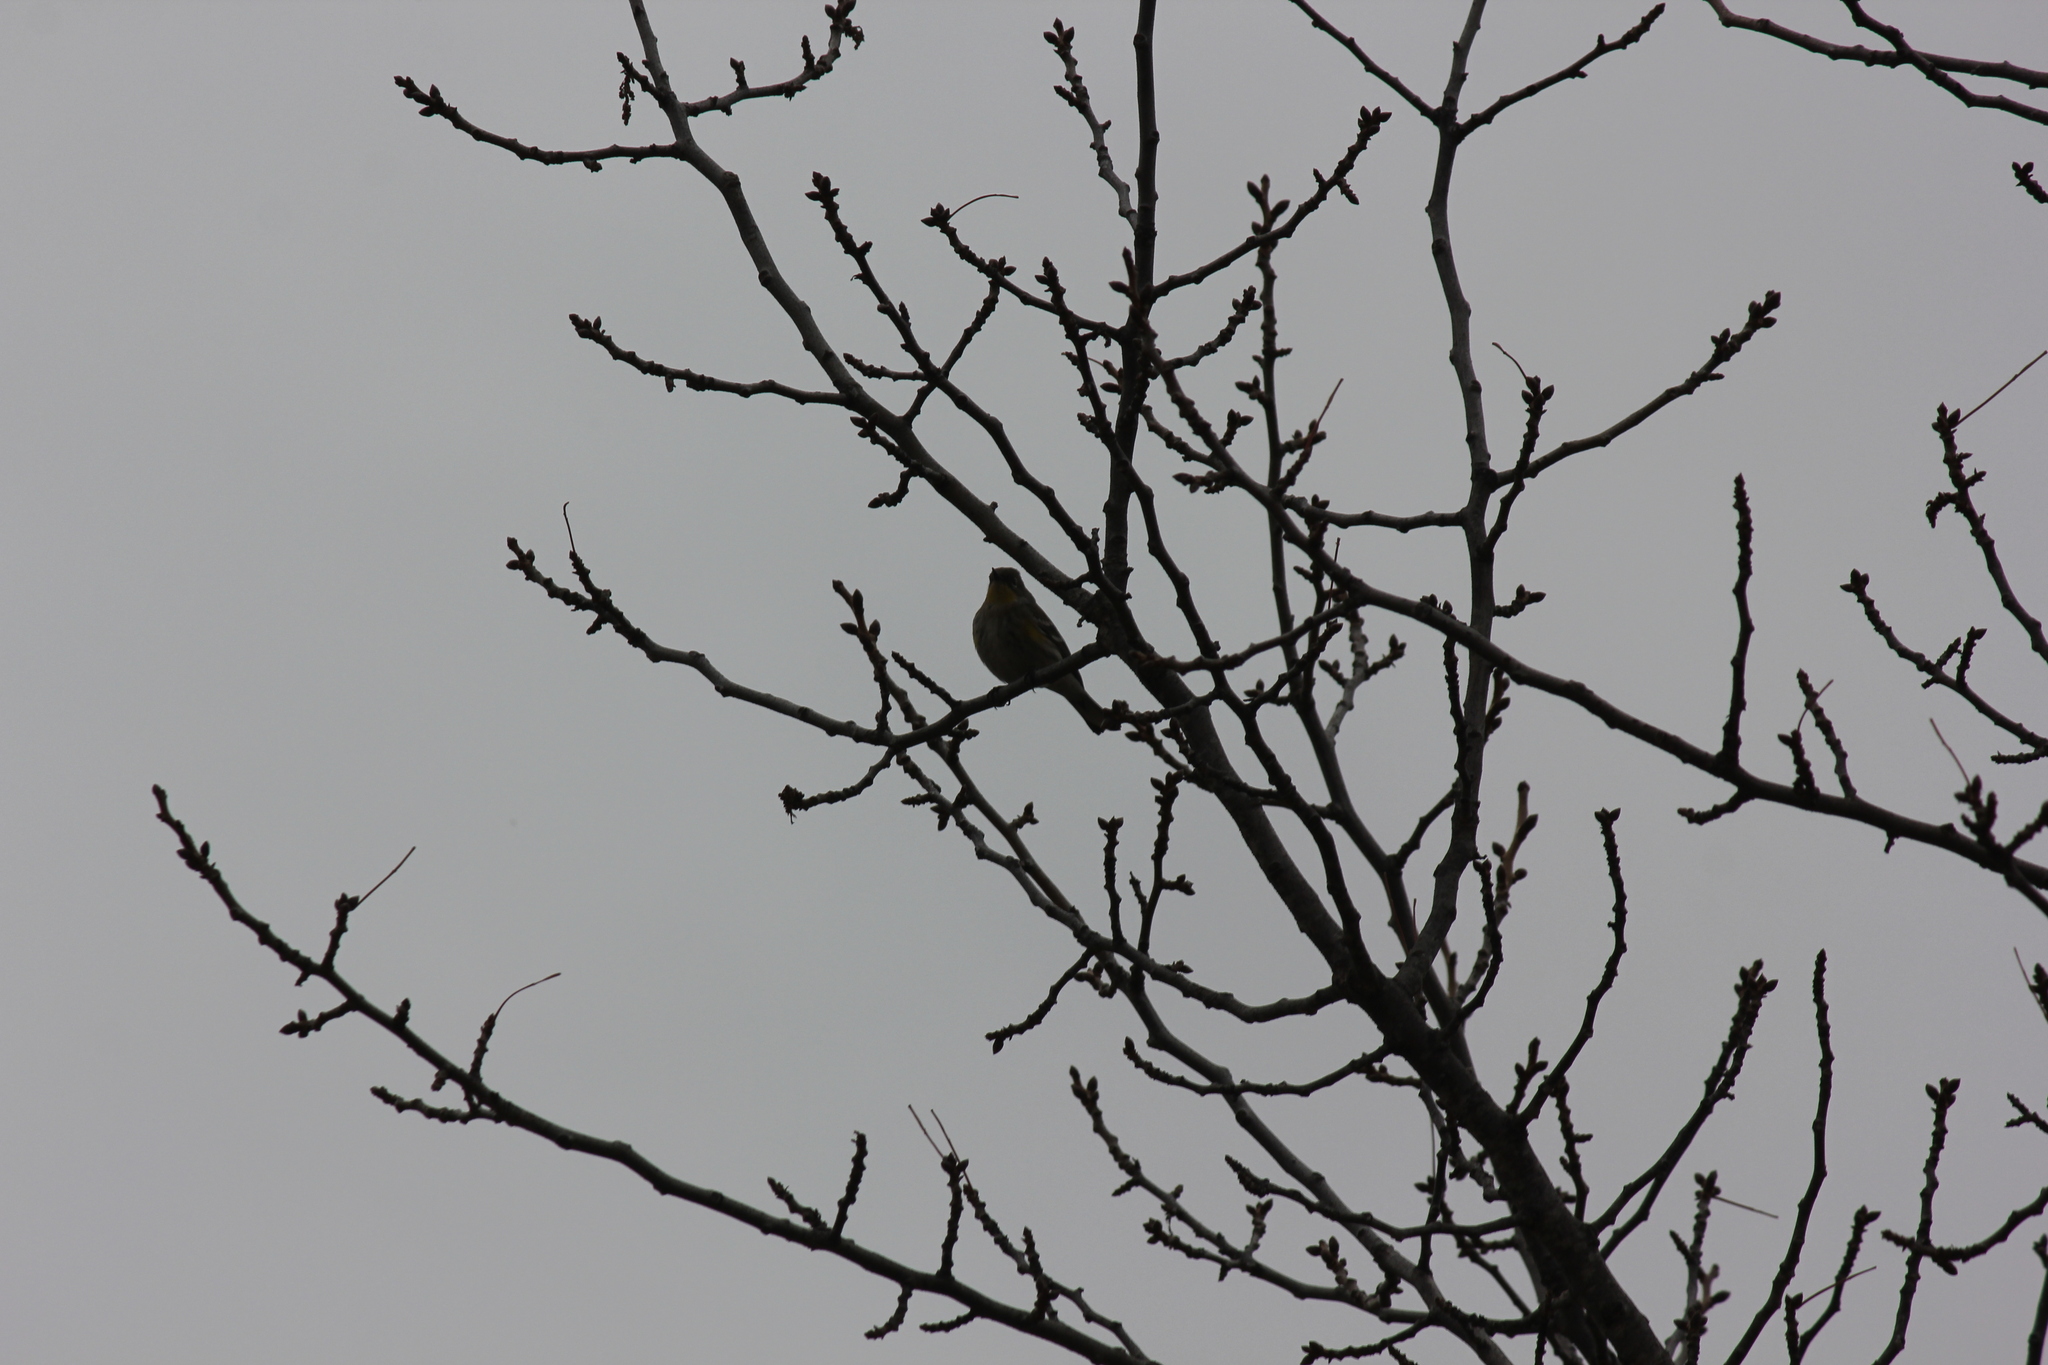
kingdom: Animalia
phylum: Chordata
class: Aves
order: Passeriformes
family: Parulidae
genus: Setophaga
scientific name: Setophaga coronata
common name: Myrtle warbler
